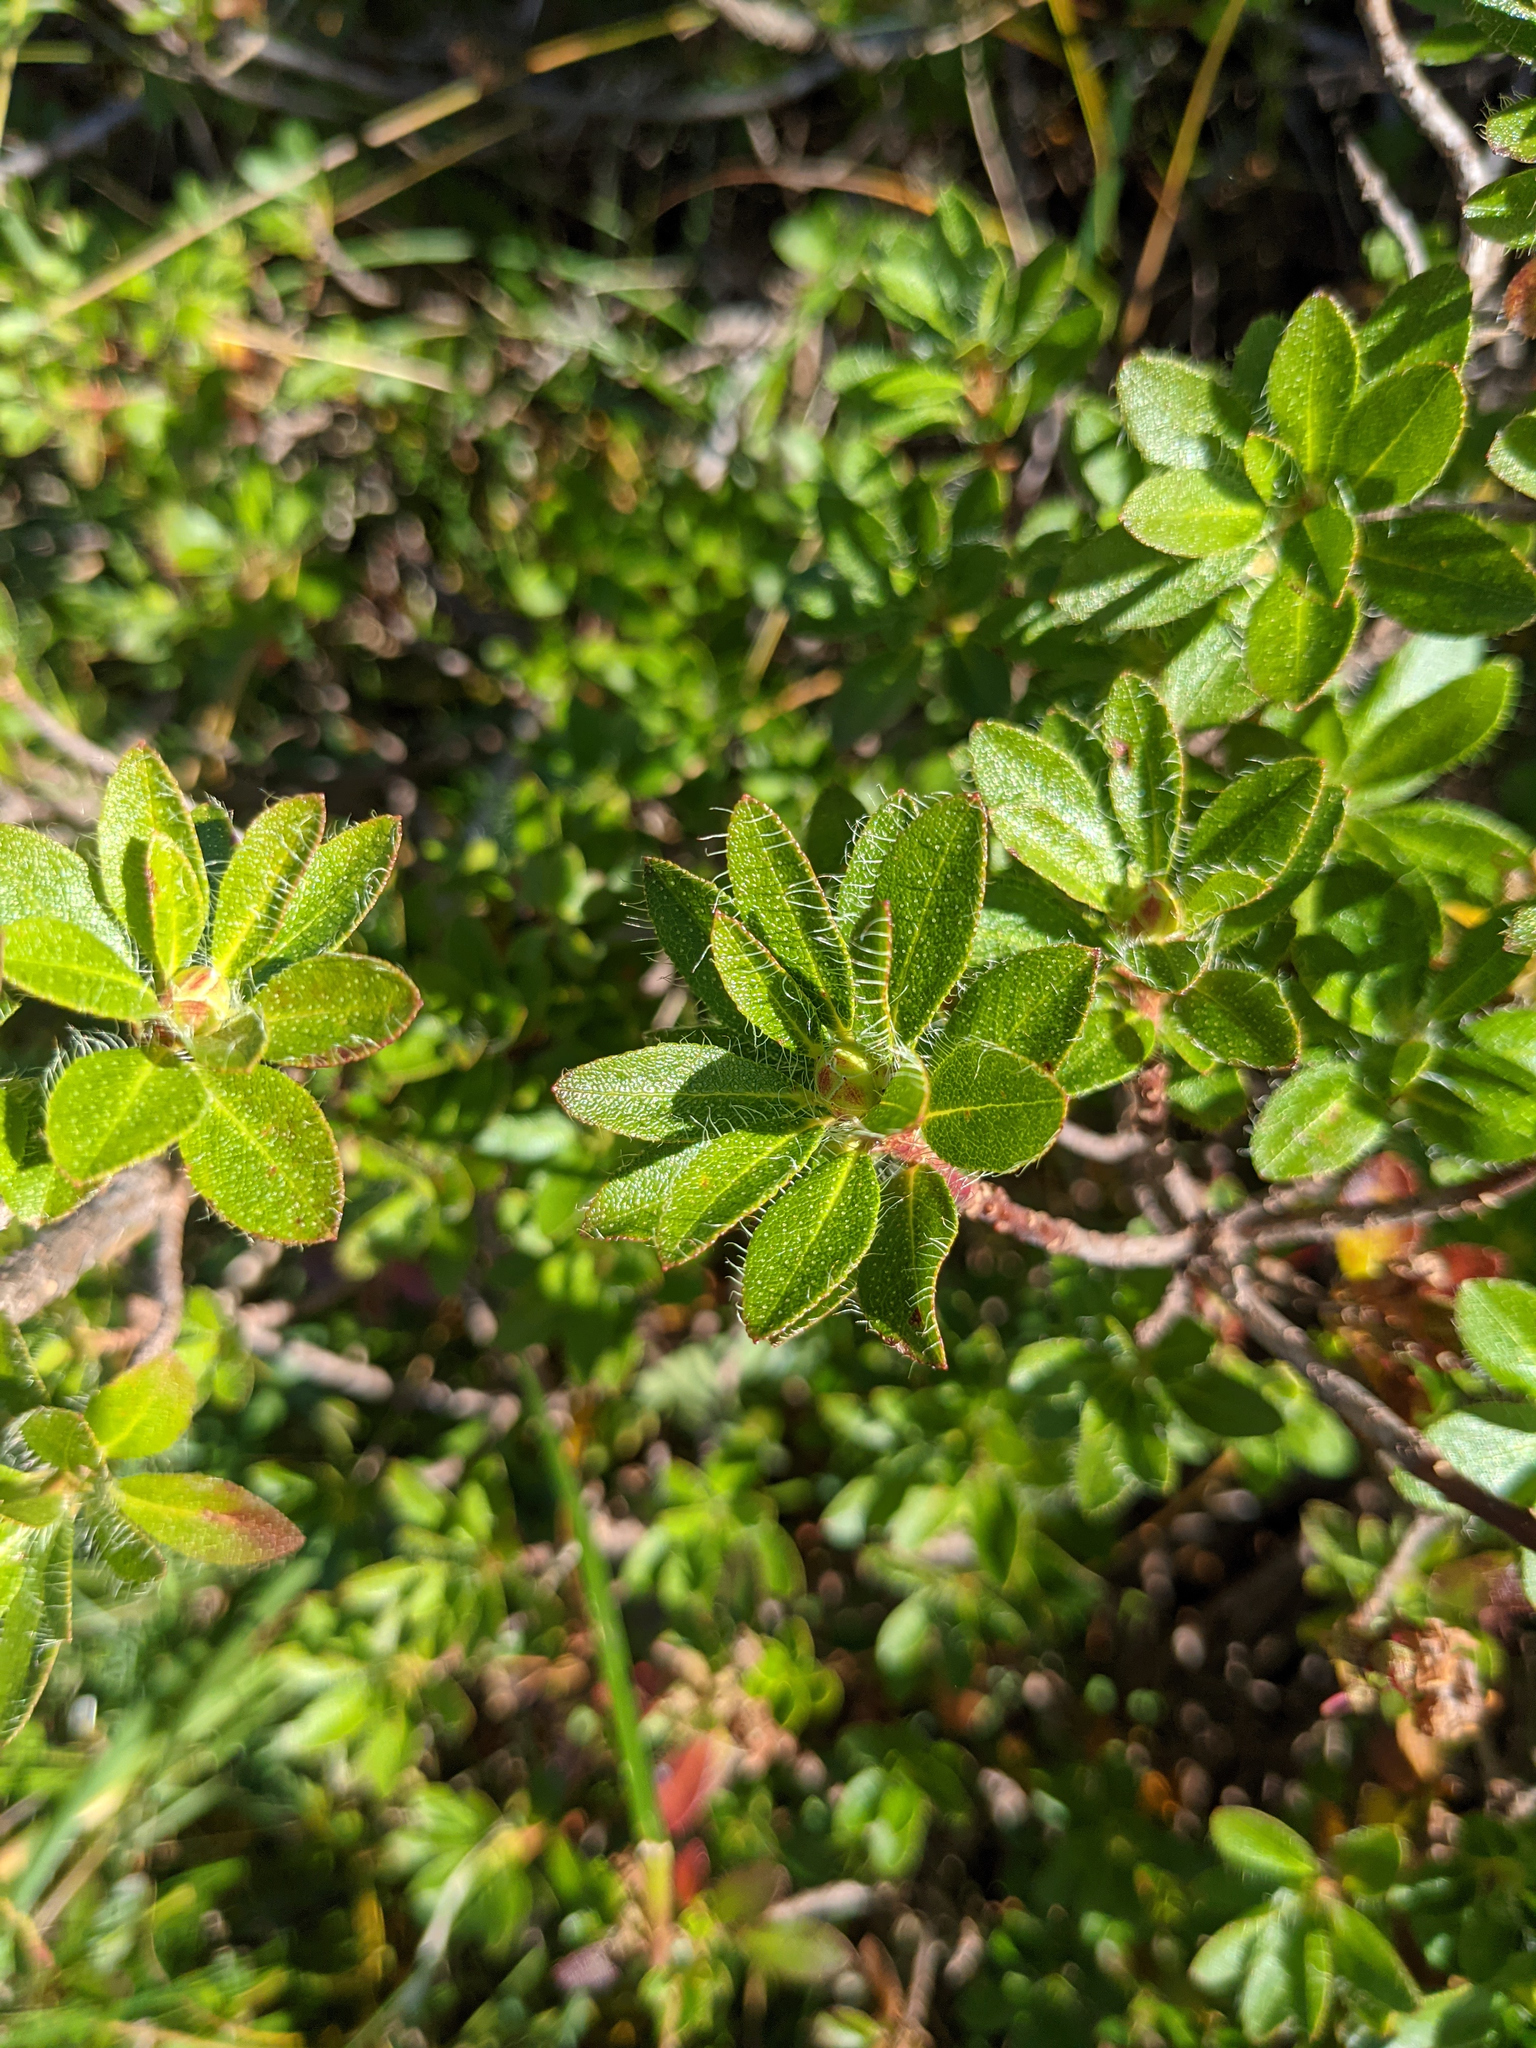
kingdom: Plantae
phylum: Tracheophyta
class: Magnoliopsida
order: Ericales
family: Ericaceae
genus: Rhododendron
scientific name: Rhododendron hirsutum
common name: Hairy alpenrose
